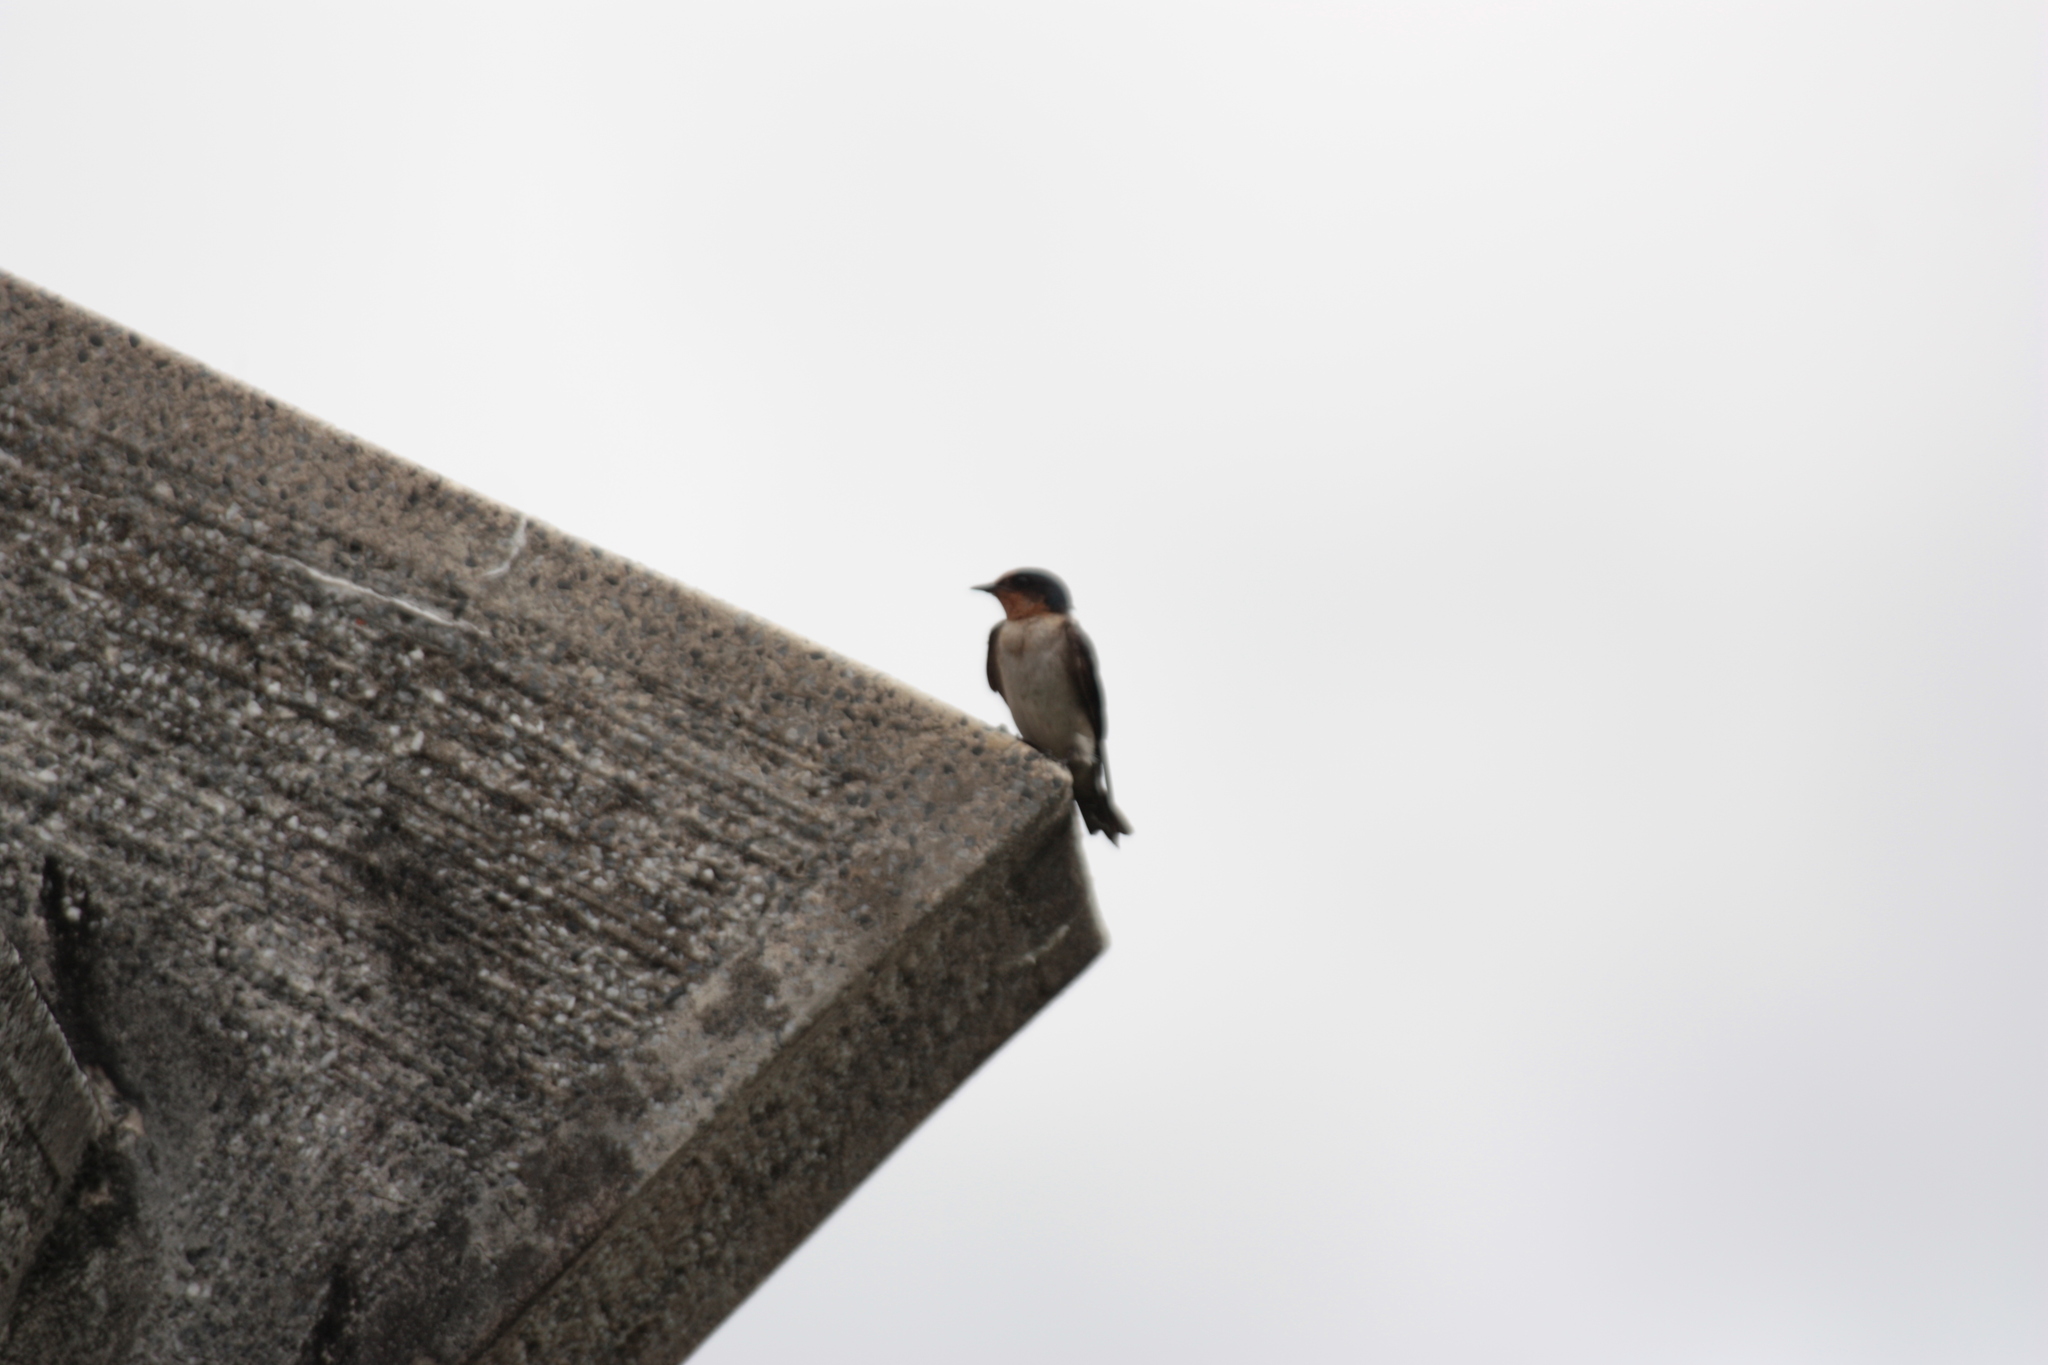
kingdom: Animalia
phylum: Chordata
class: Aves
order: Passeriformes
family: Hirundinidae
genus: Hirundo
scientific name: Hirundo tahitica
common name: Pacific swallow
